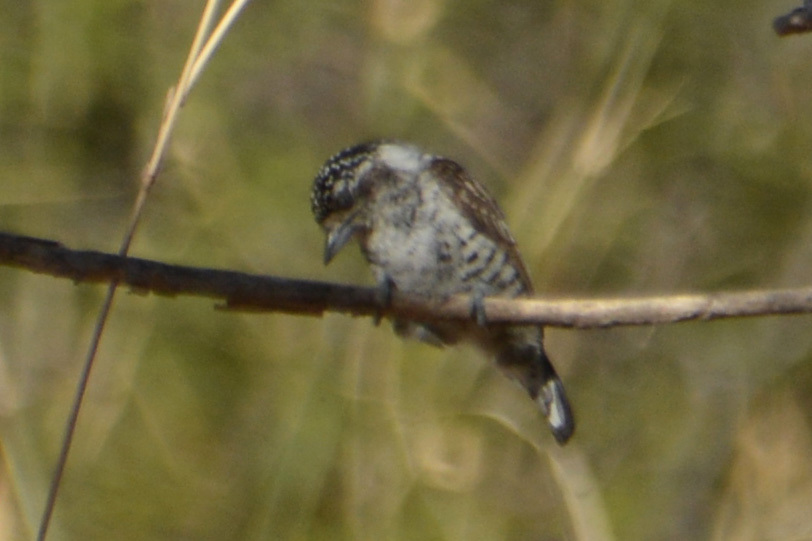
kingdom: Animalia
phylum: Chordata
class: Aves
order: Piciformes
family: Picidae
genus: Picumnus
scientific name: Picumnus cirratus
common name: White-barred piculet
